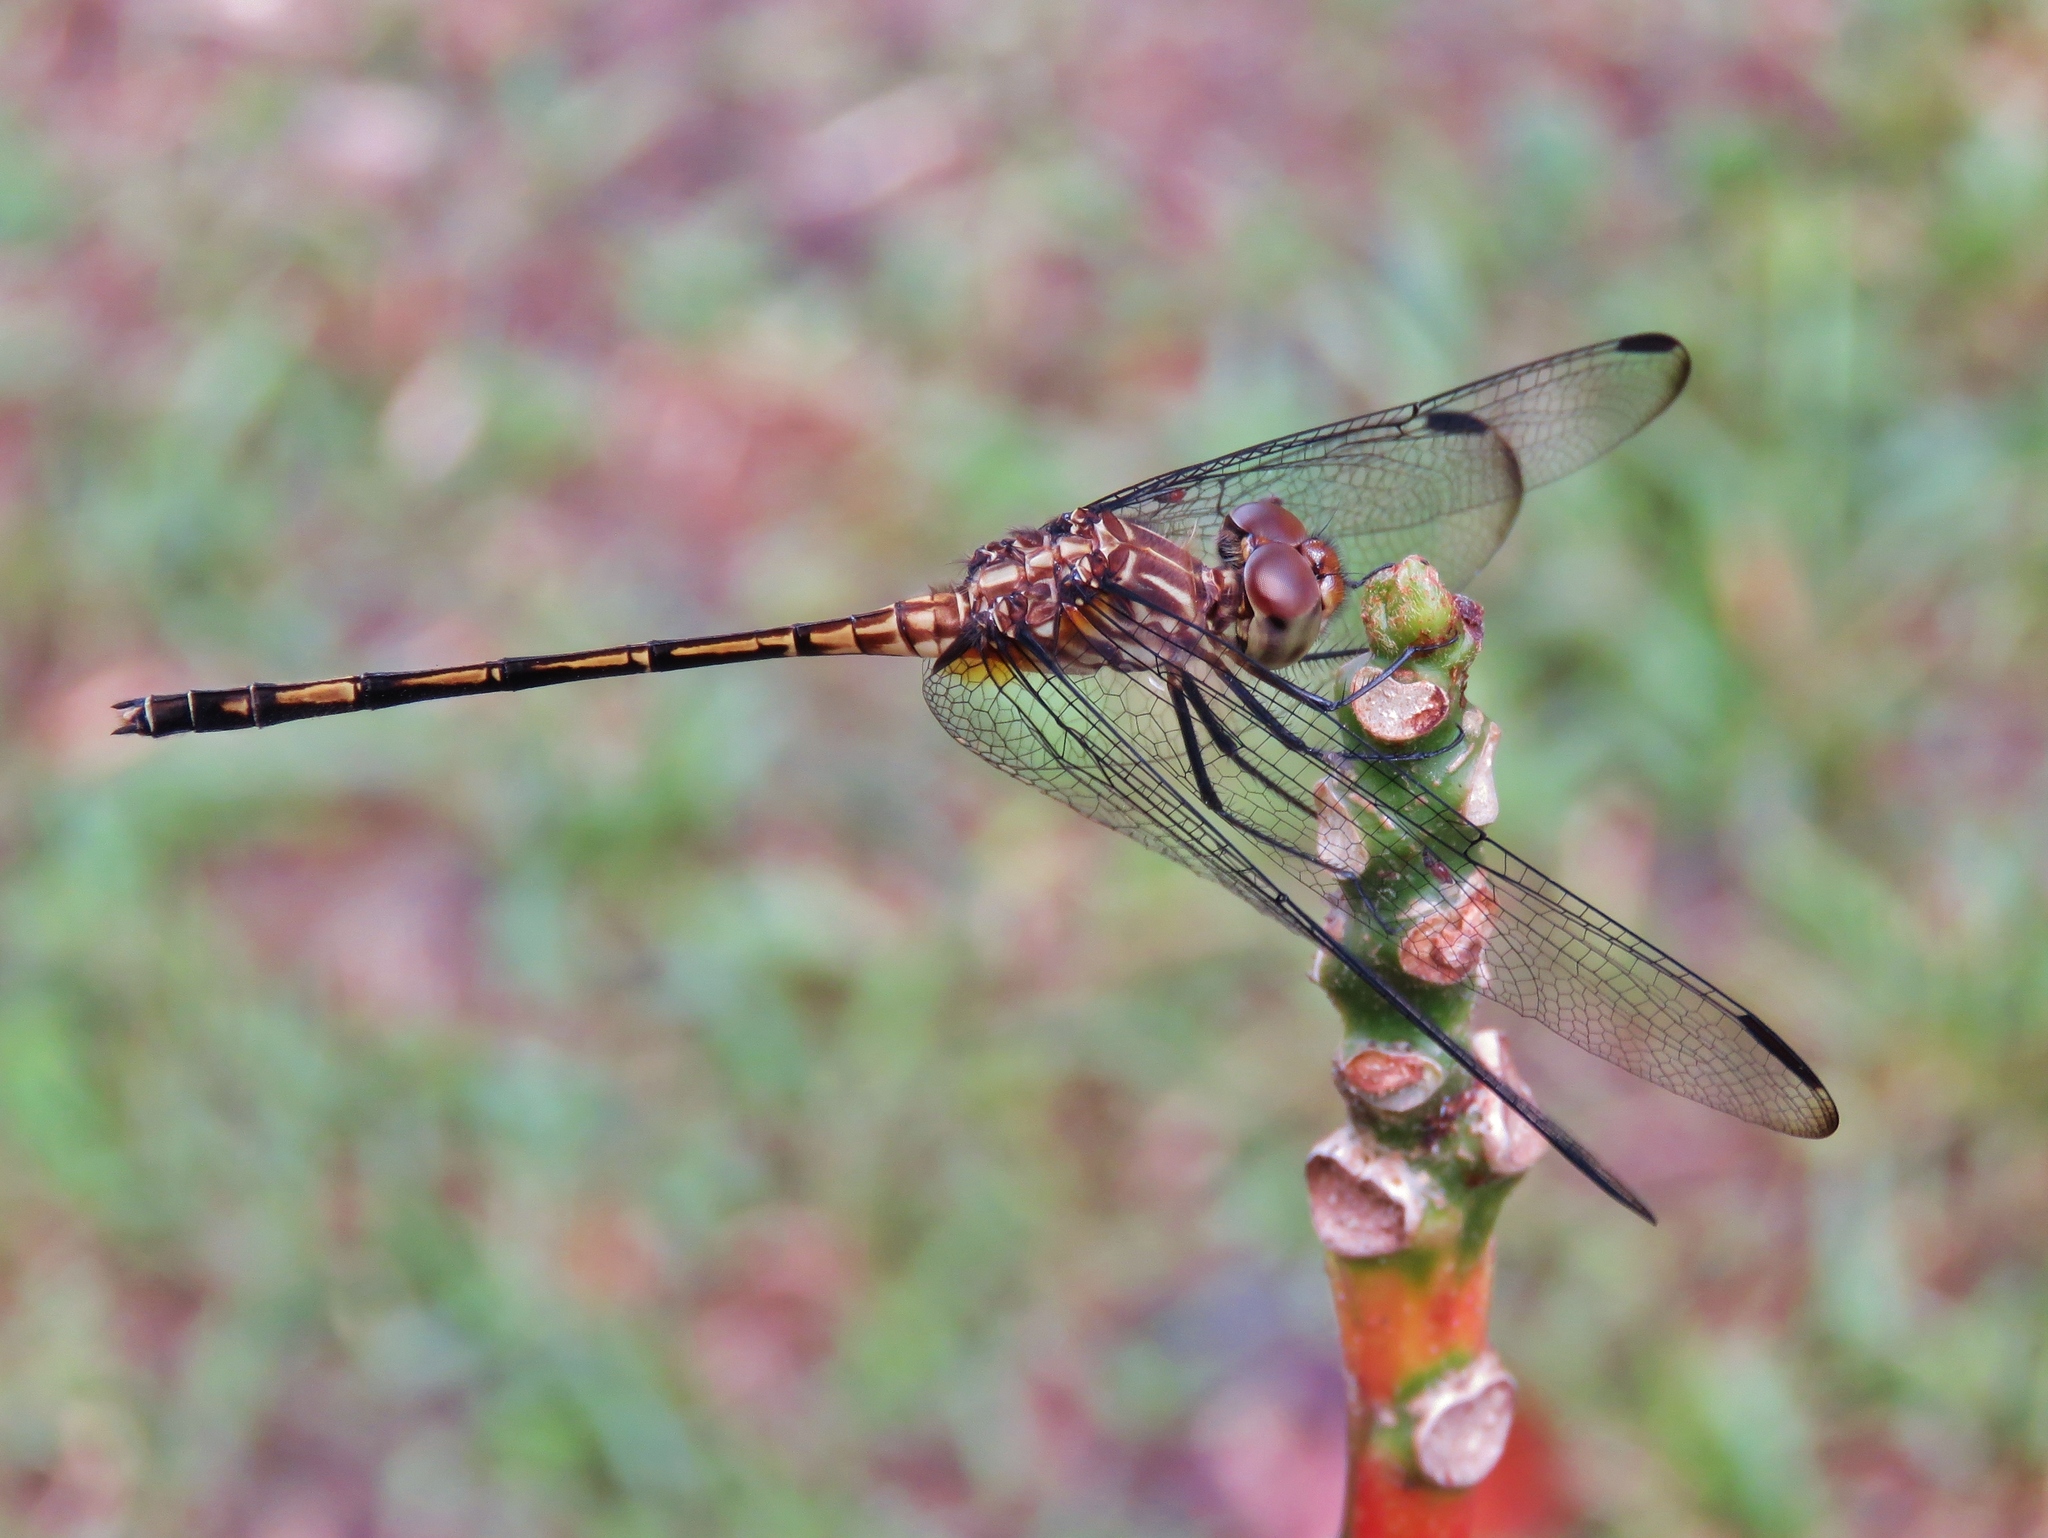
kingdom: Animalia
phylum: Arthropoda
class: Insecta
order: Odonata
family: Libellulidae
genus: Dythemis
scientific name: Dythemis sterilis
